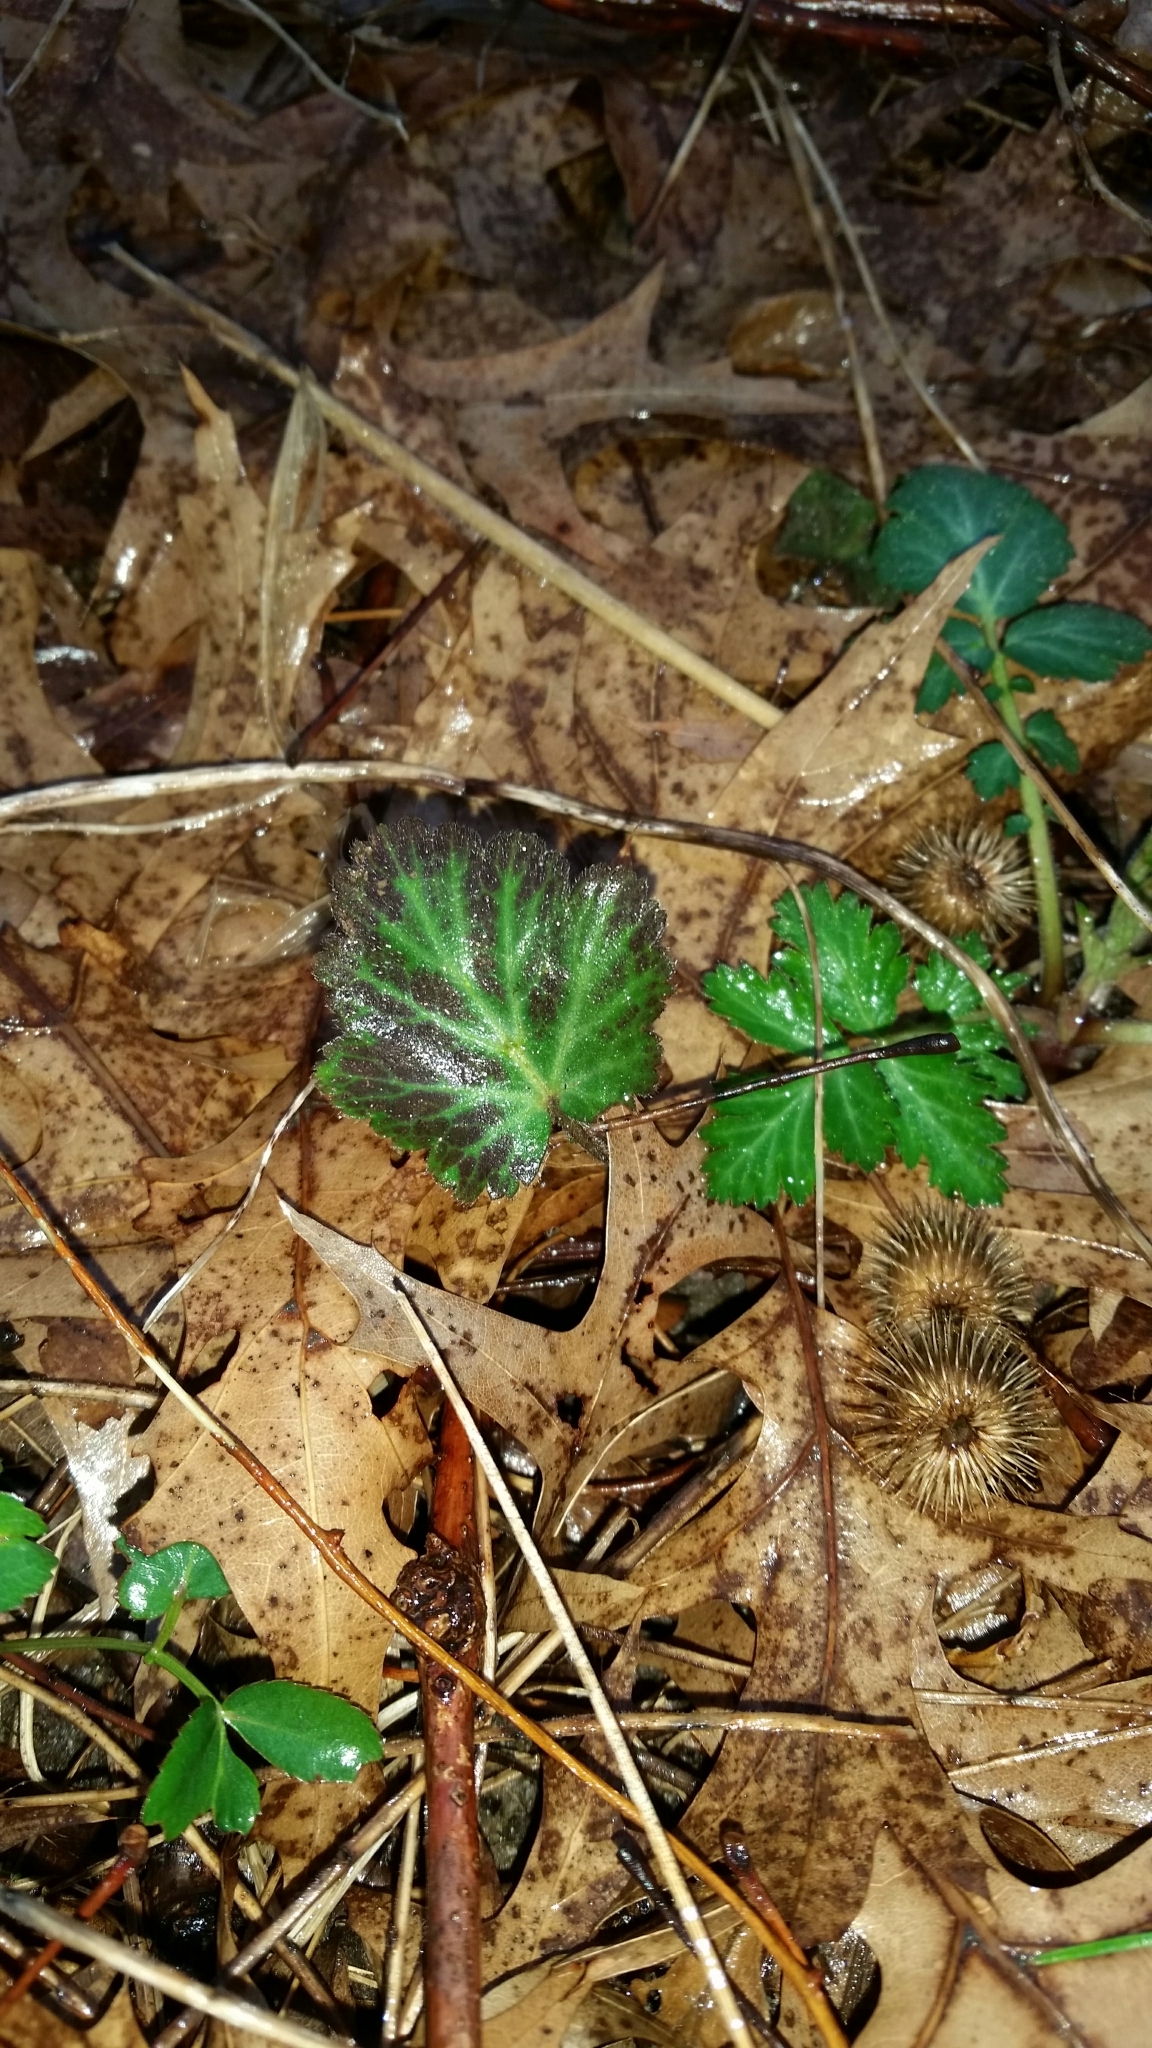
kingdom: Plantae
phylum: Tracheophyta
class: Magnoliopsida
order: Rosales
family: Rosaceae
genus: Geum
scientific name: Geum canadense
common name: White avens
